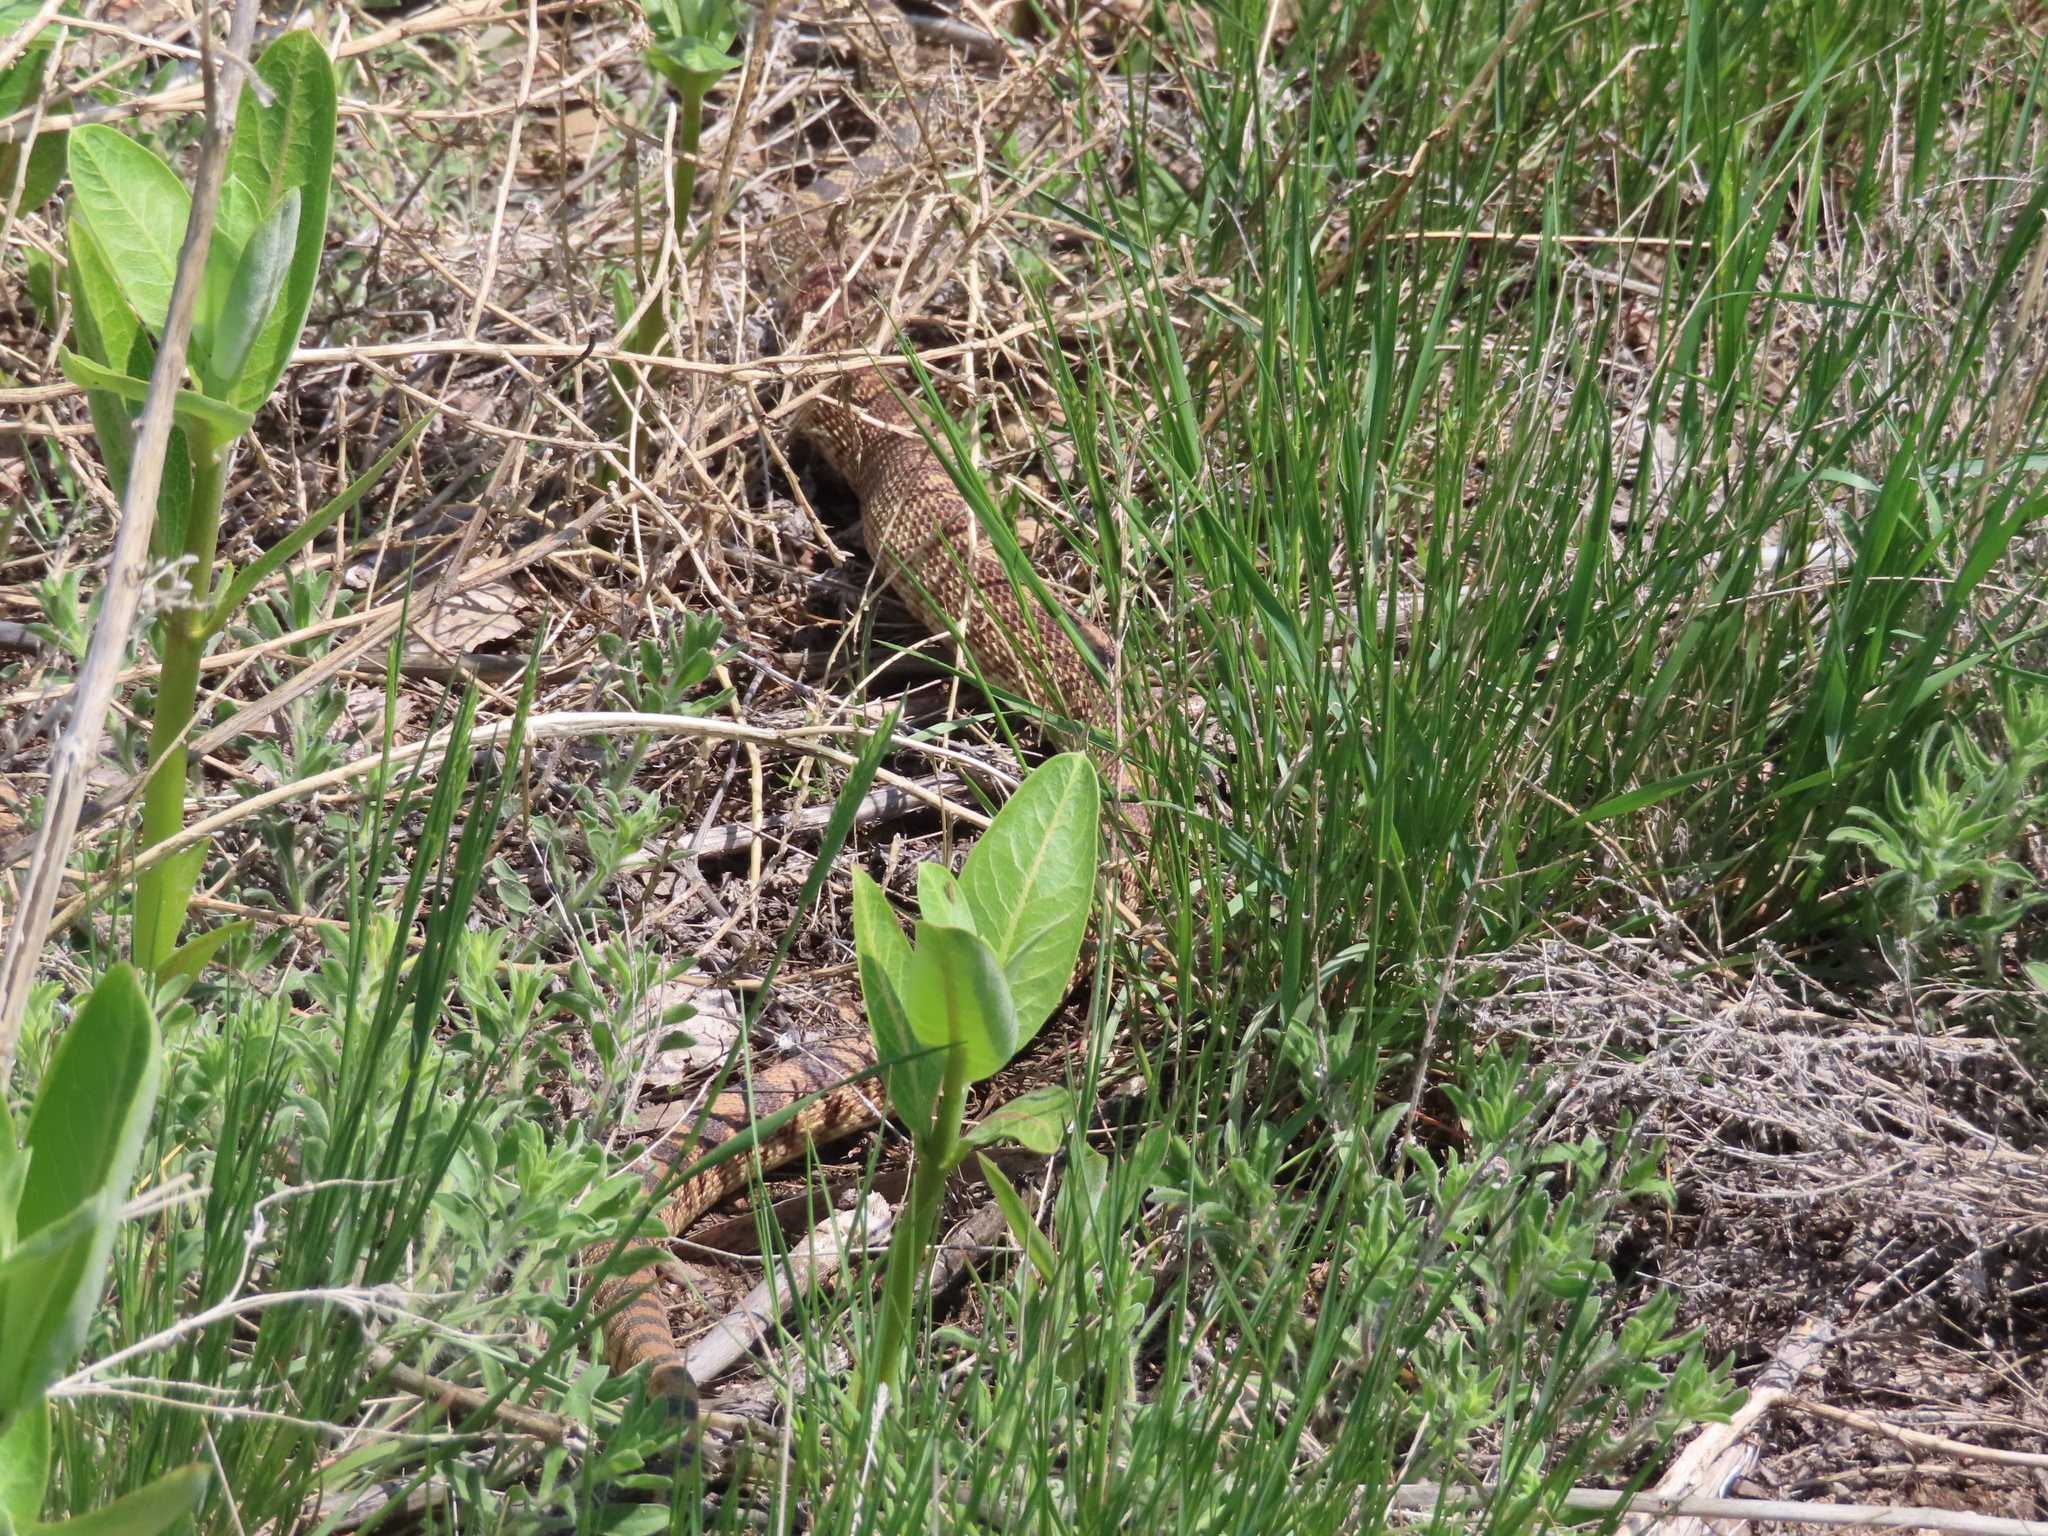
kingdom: Animalia
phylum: Chordata
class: Squamata
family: Colubridae
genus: Pituophis
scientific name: Pituophis catenifer
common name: Gopher snake
